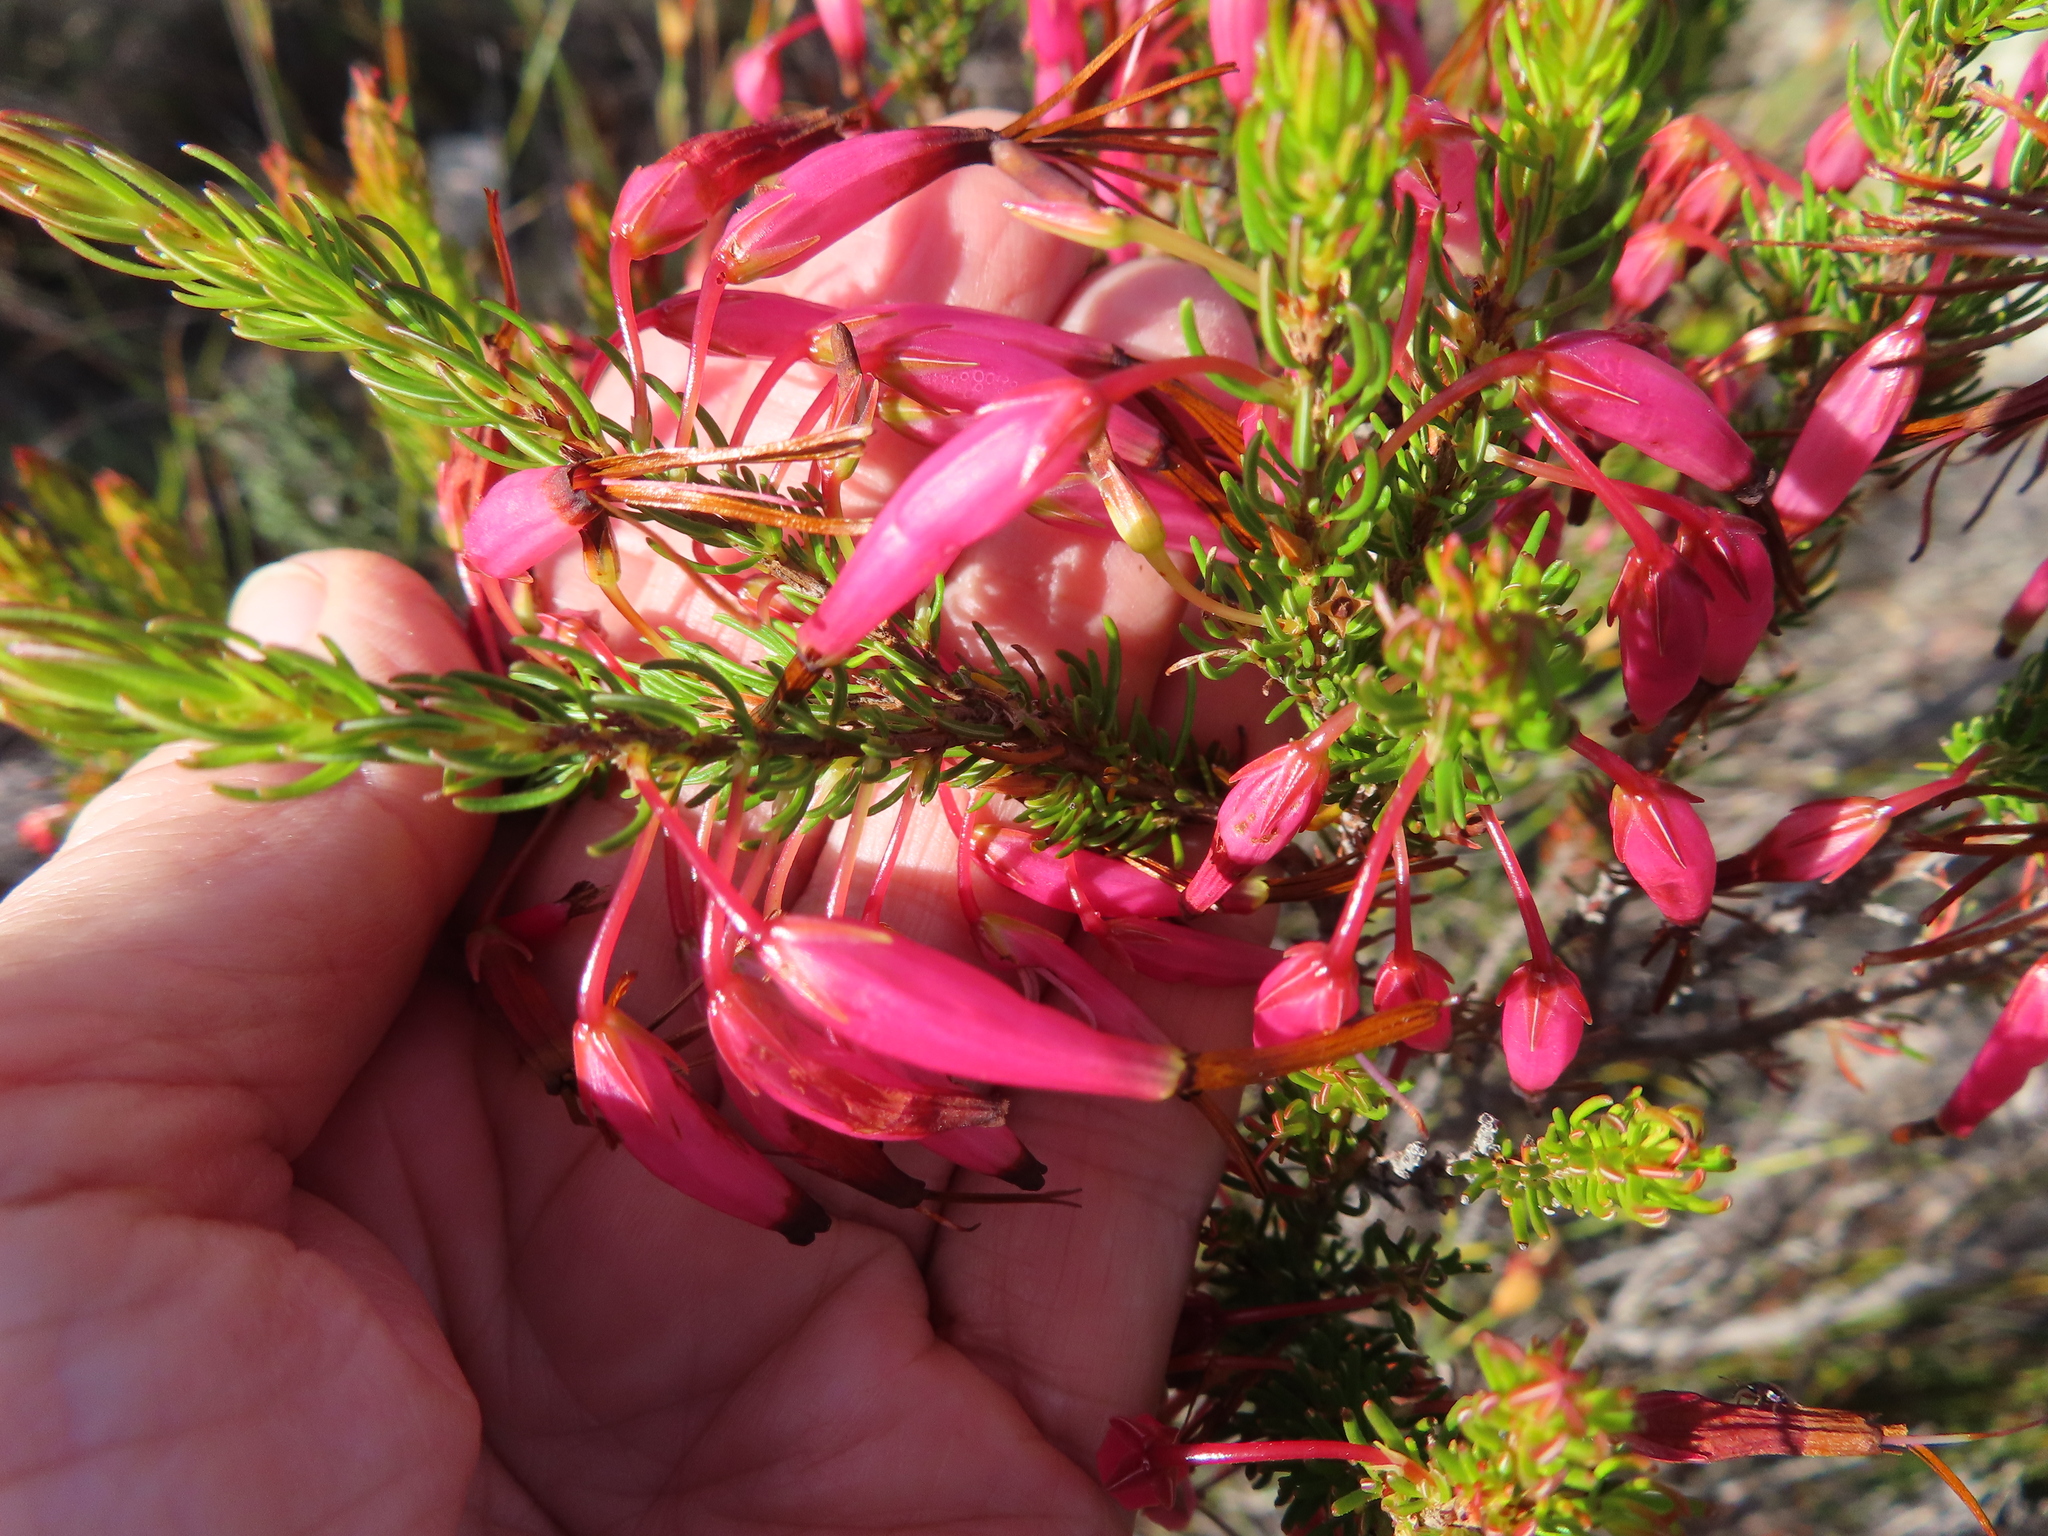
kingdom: Plantae
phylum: Tracheophyta
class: Magnoliopsida
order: Ericales
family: Ericaceae
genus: Erica
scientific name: Erica plukenetii
